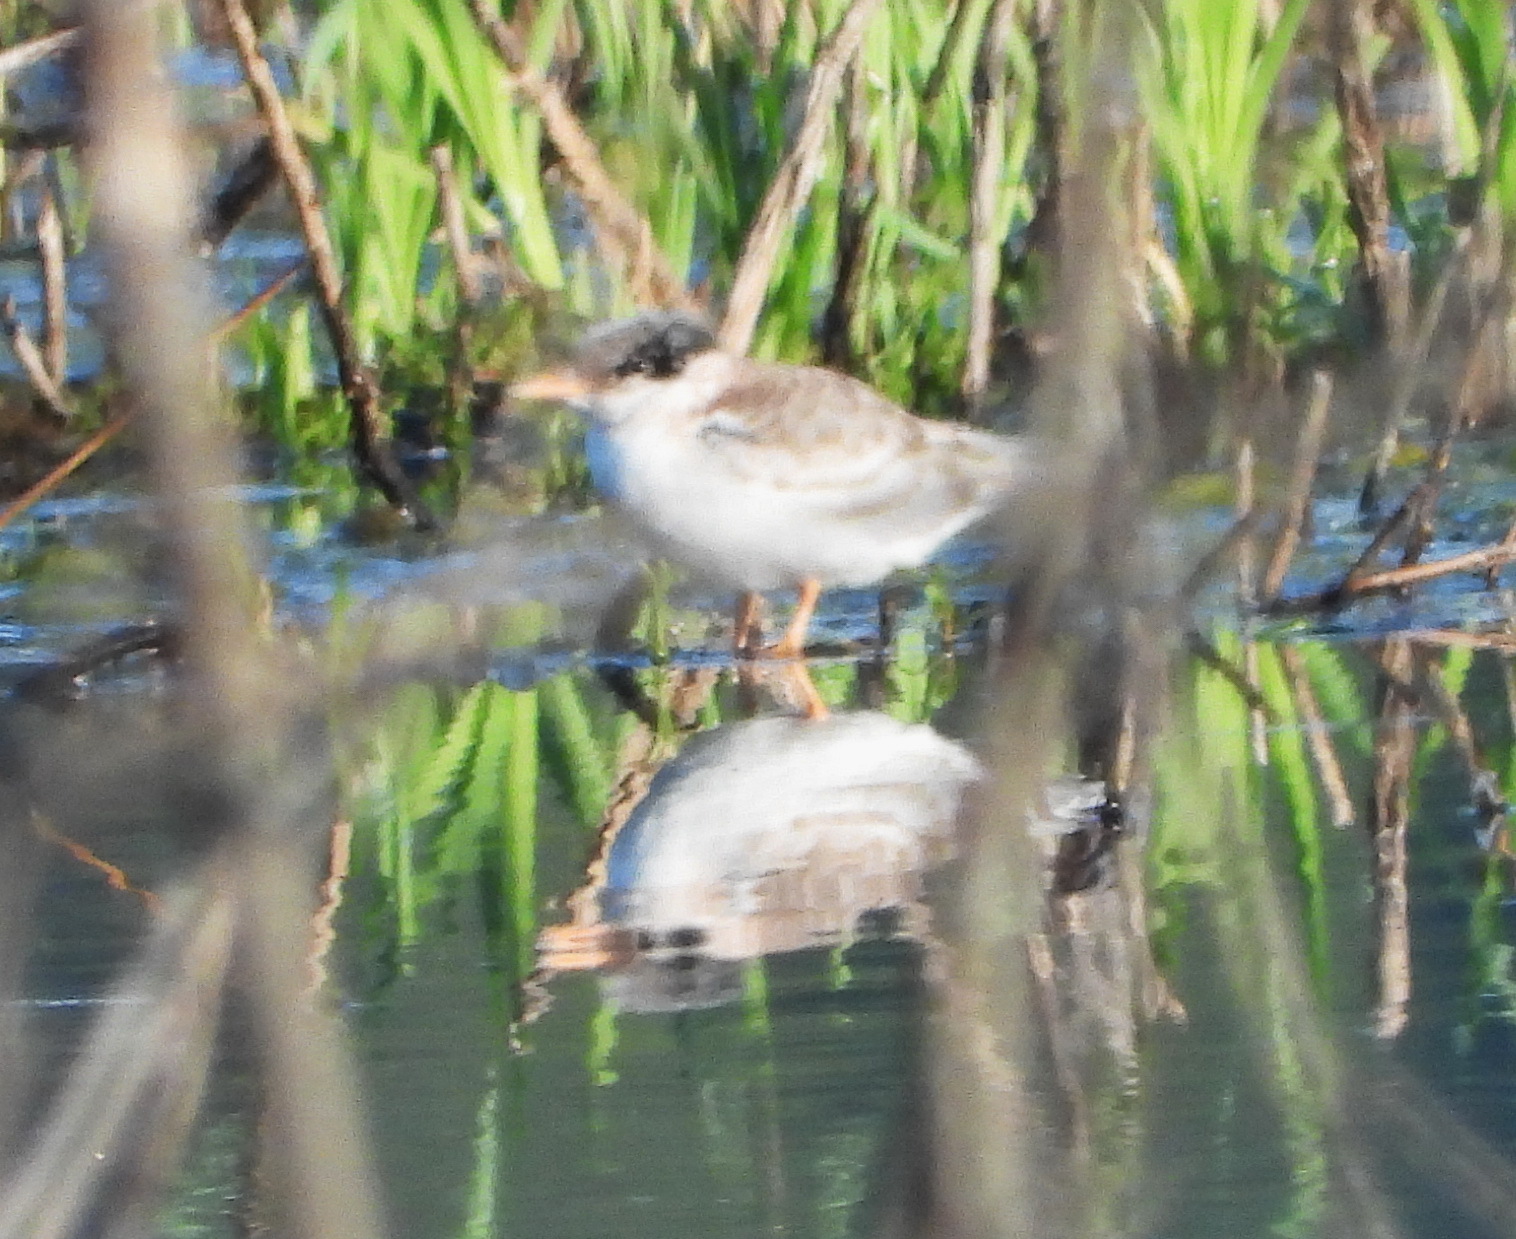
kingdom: Animalia
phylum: Chordata
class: Aves
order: Charadriiformes
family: Laridae
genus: Sterna
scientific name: Sterna hirundo
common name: Common tern
